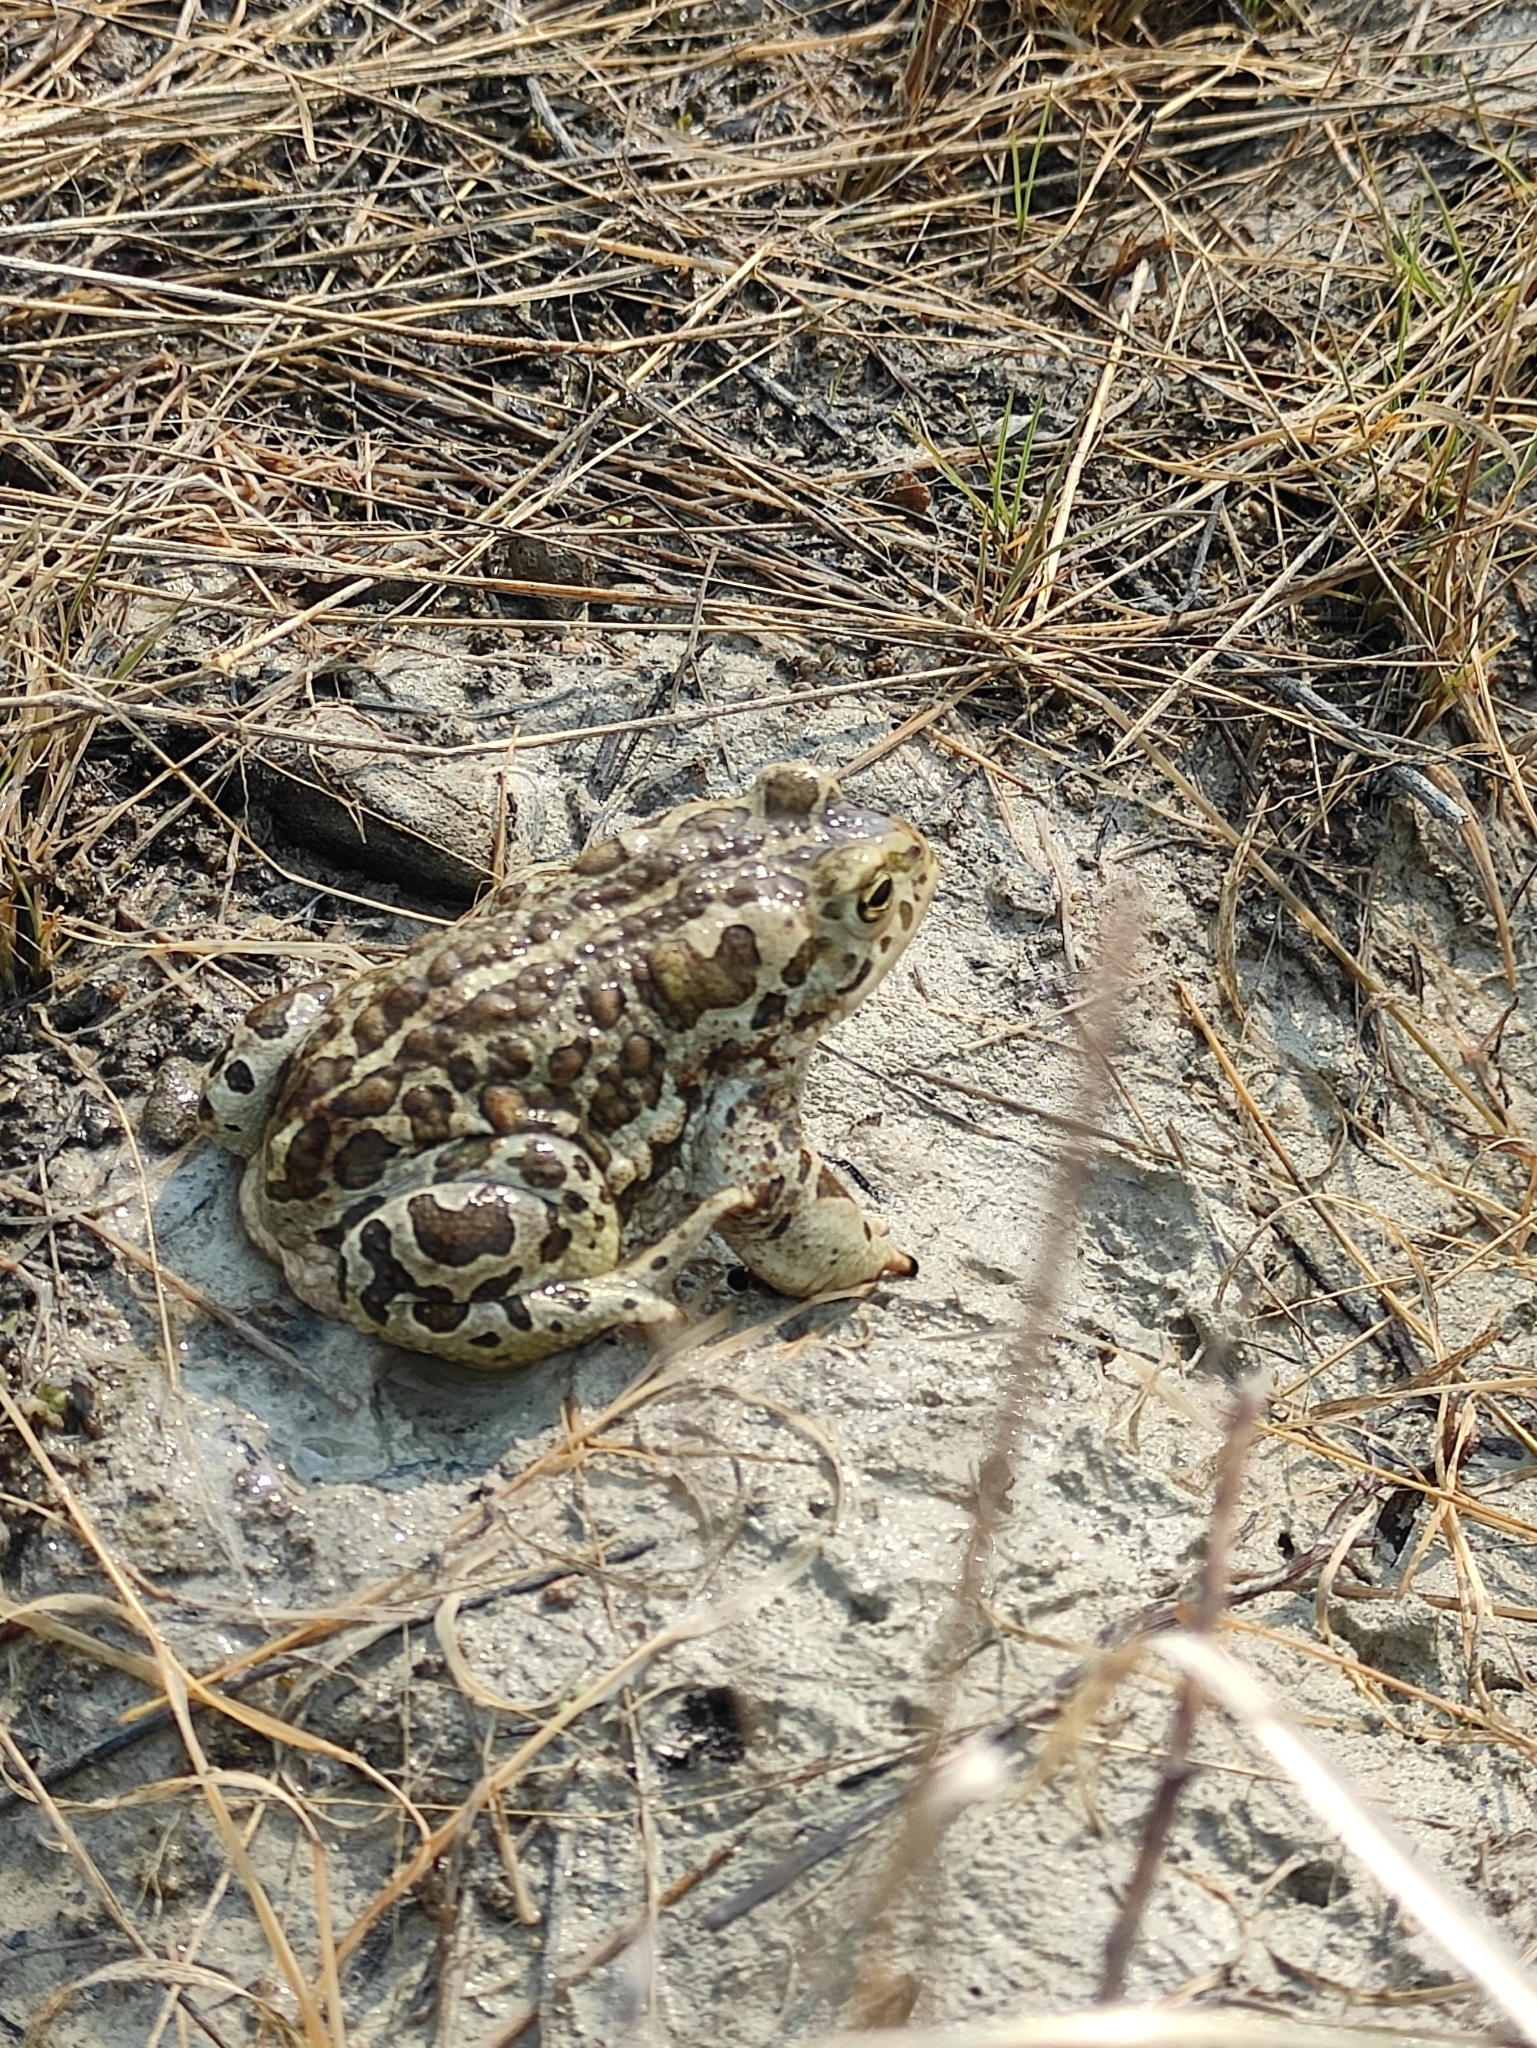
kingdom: Animalia
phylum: Chordata
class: Amphibia
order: Anura
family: Bufonidae
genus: Strauchbufo
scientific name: Strauchbufo raddei
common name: Mongolian toad
